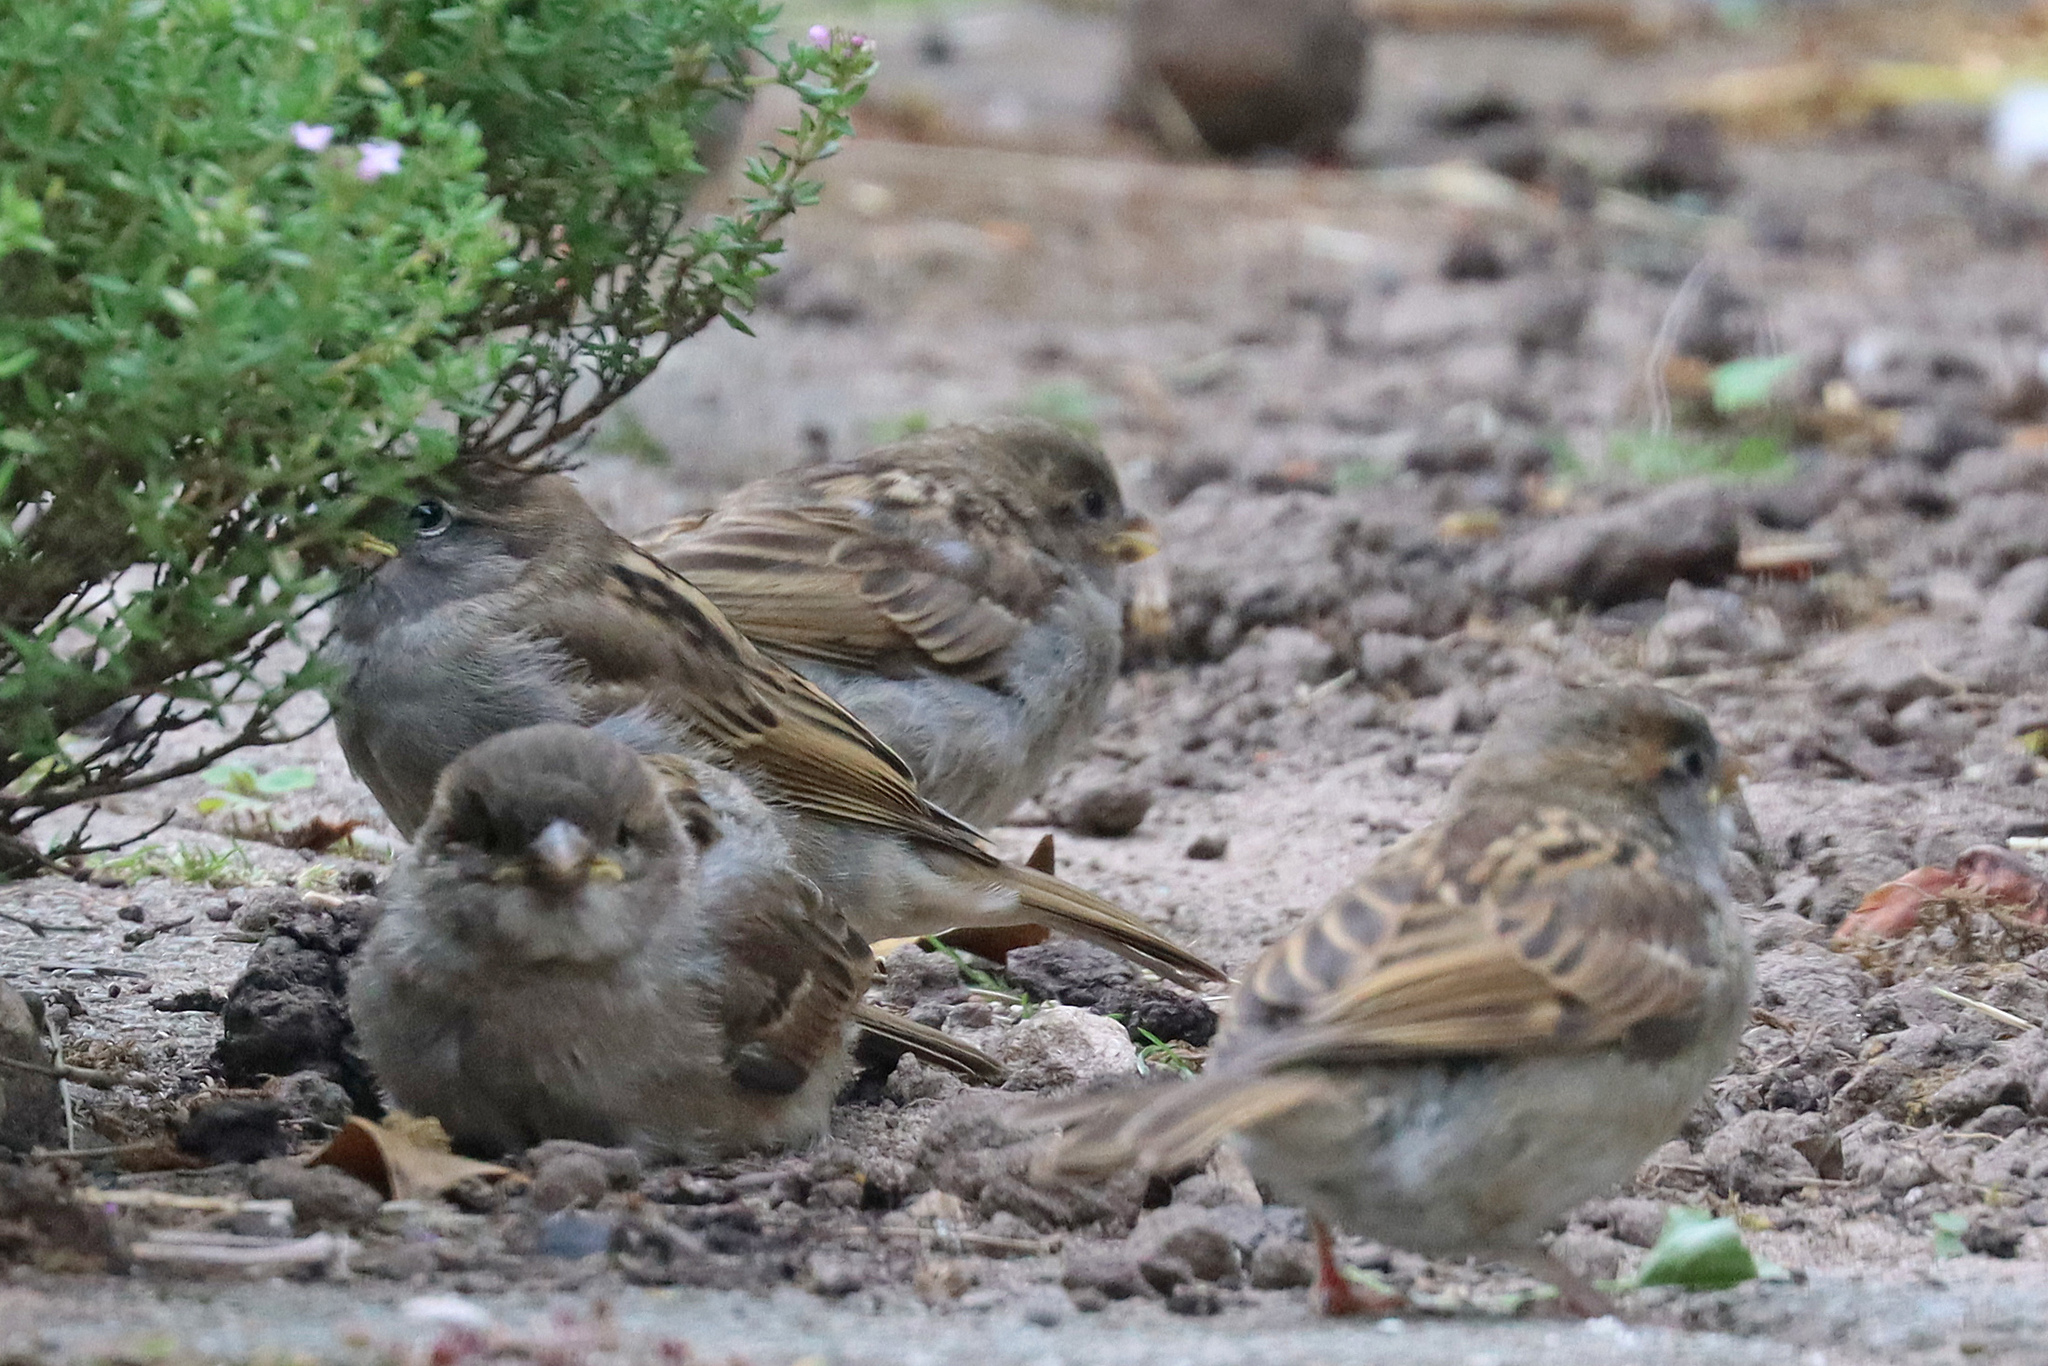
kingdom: Animalia
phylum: Chordata
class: Aves
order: Passeriformes
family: Passeridae
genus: Passer
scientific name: Passer domesticus
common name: House sparrow
